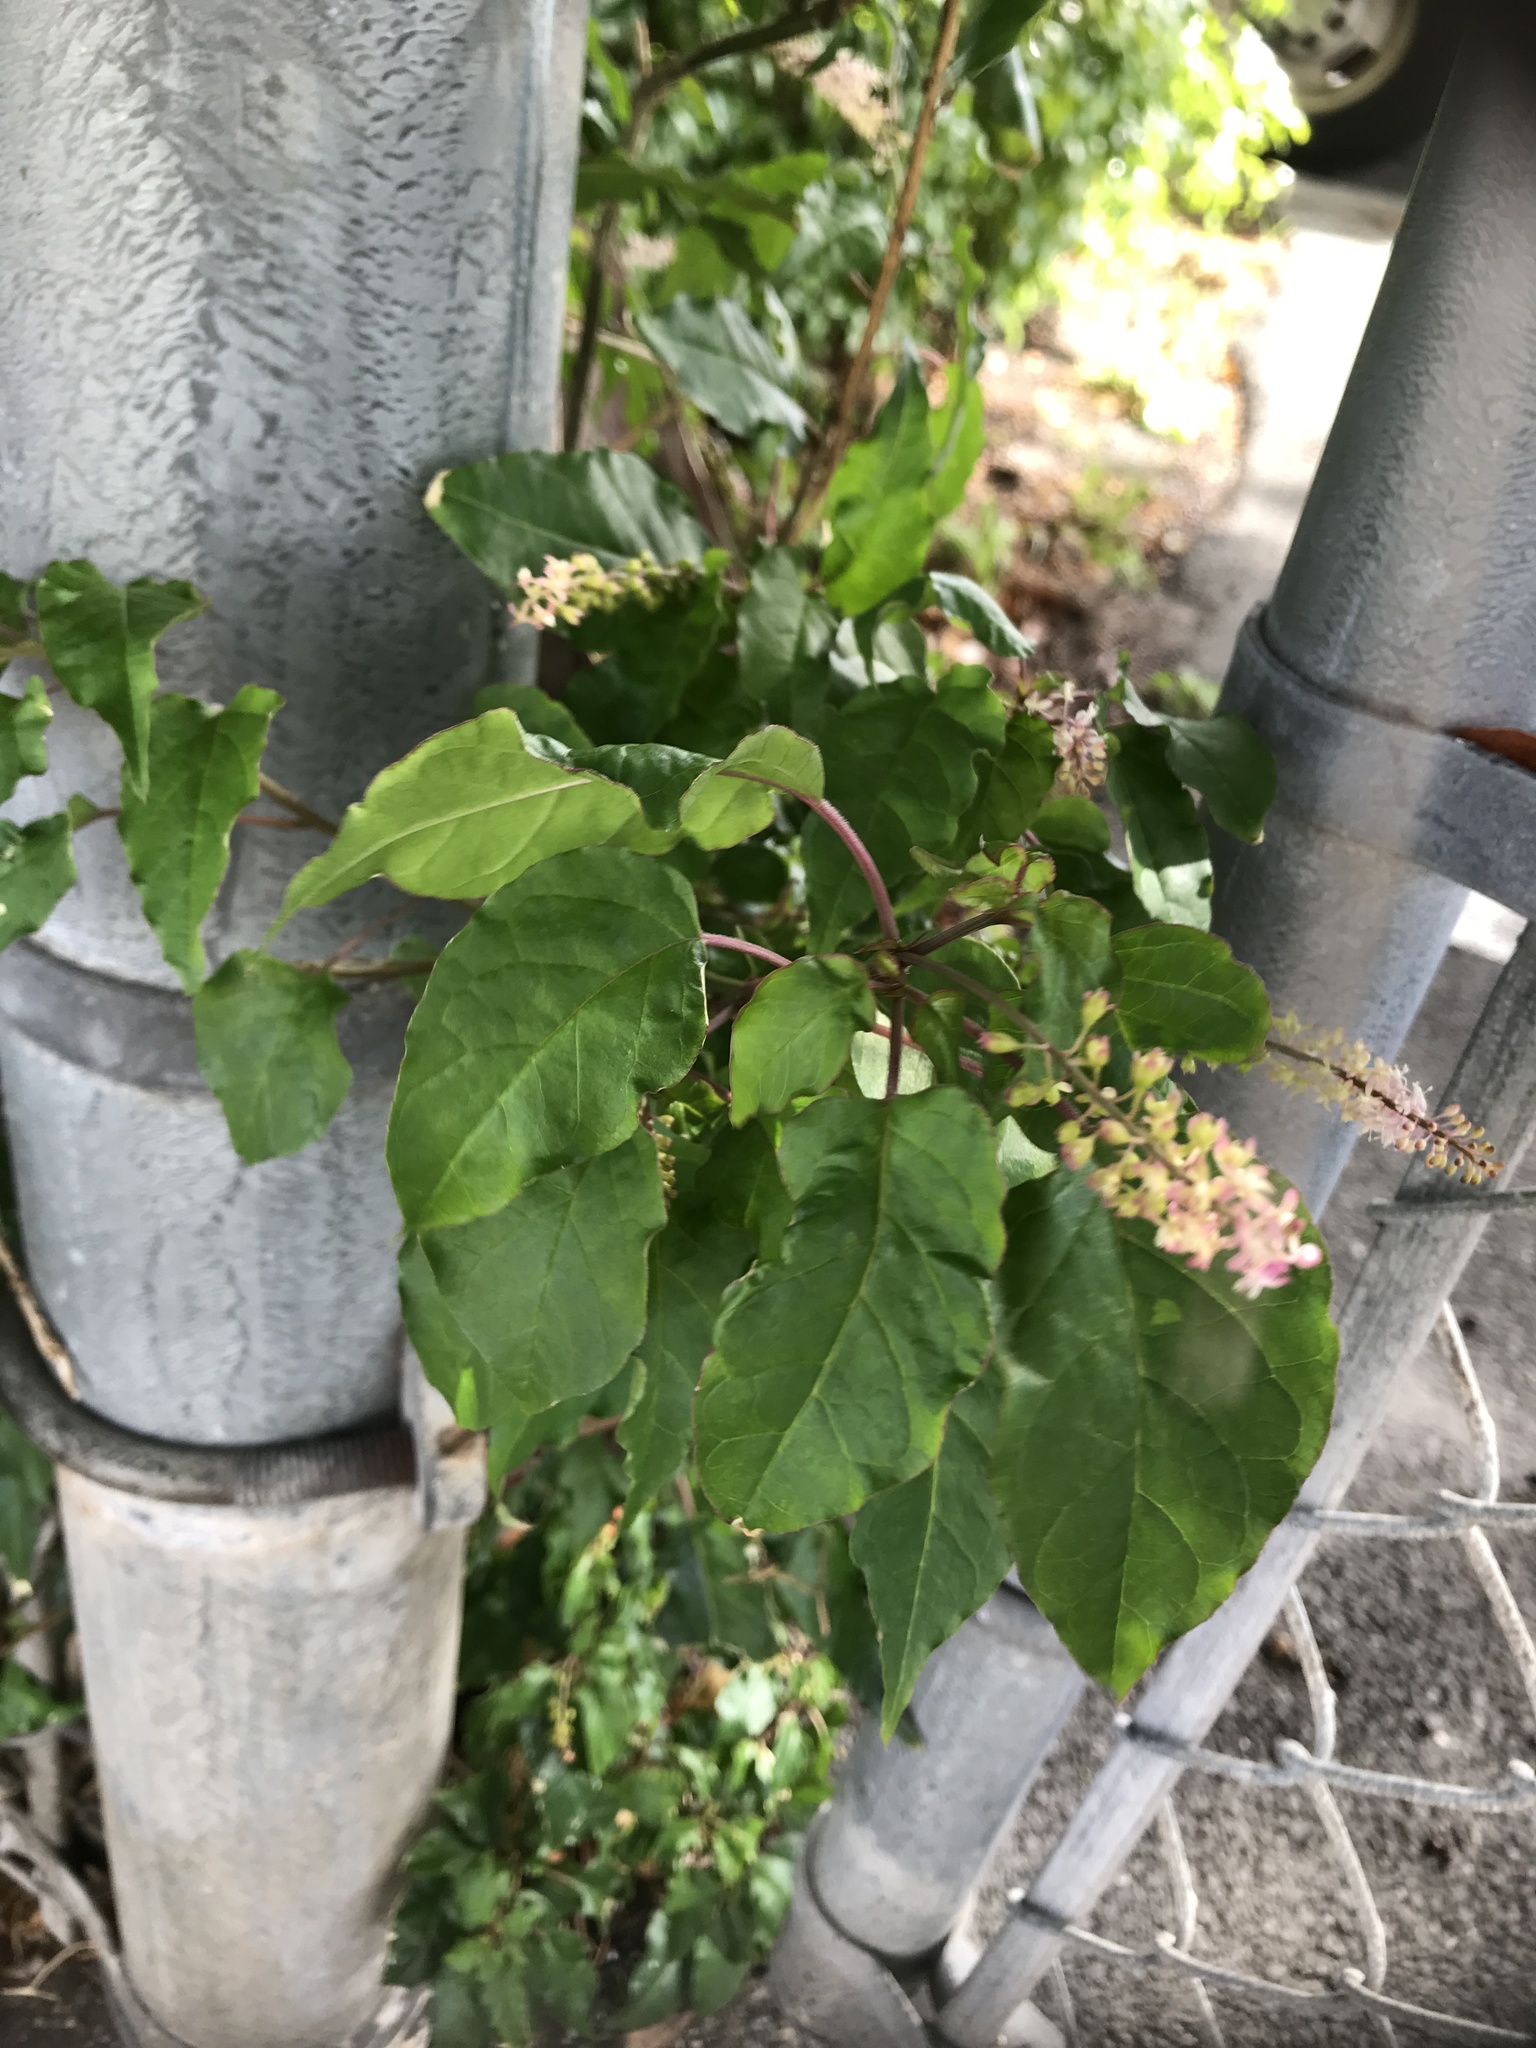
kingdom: Plantae
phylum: Tracheophyta
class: Magnoliopsida
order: Caryophyllales
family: Phytolaccaceae
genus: Rivina
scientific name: Rivina humilis
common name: Rougeplant
